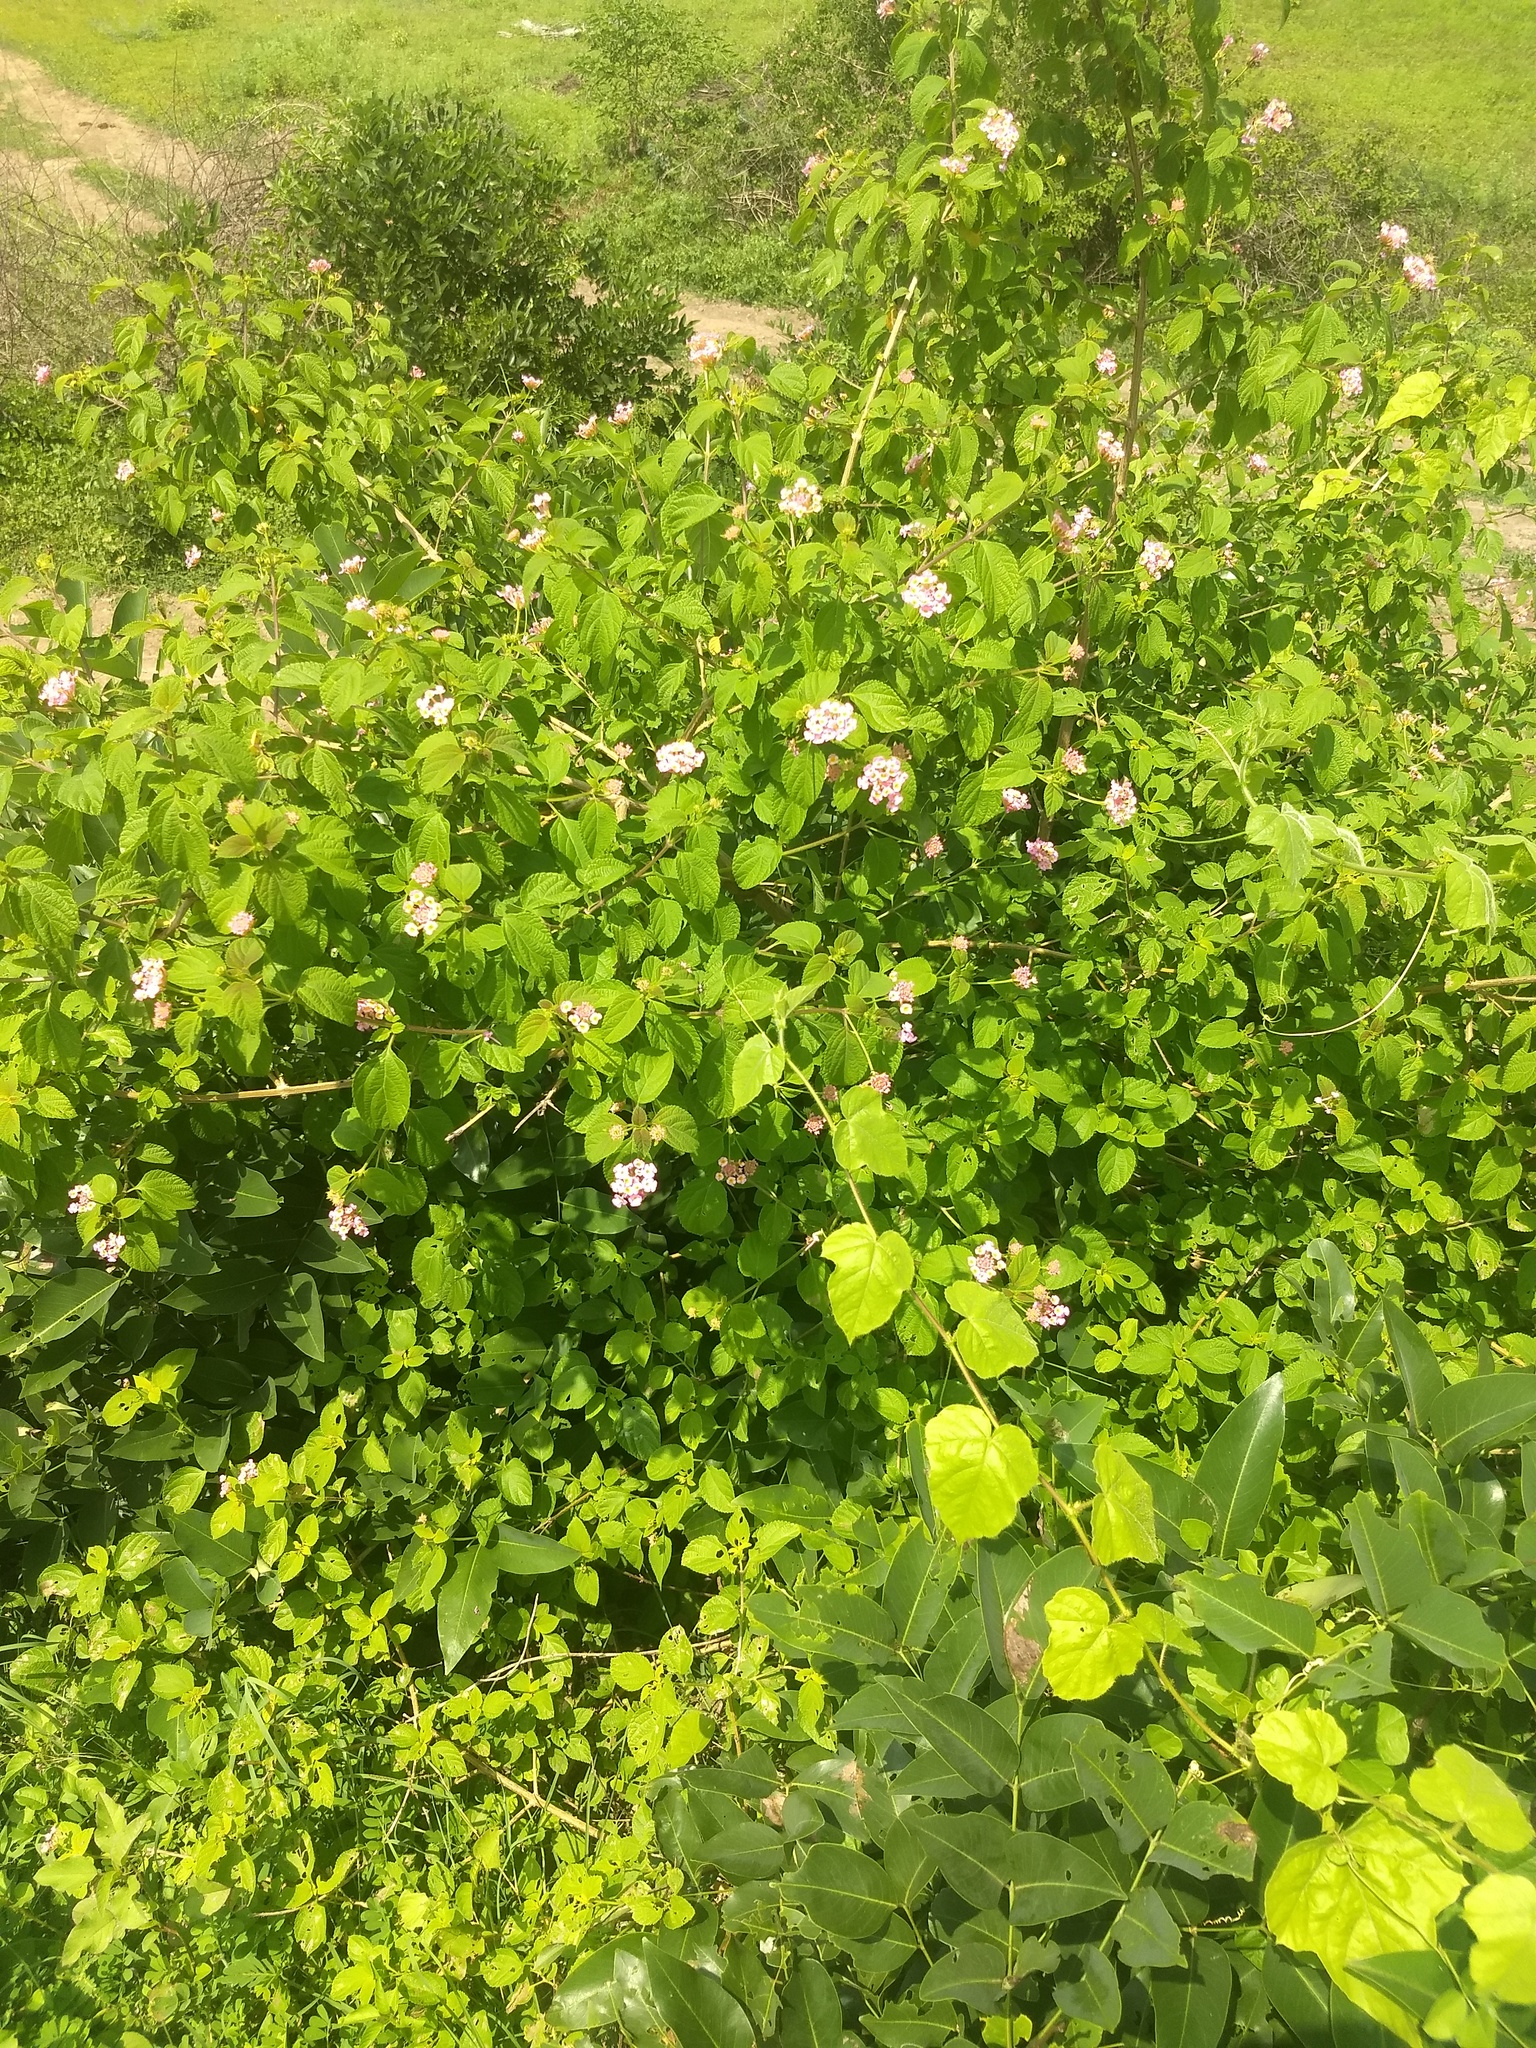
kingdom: Plantae
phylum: Tracheophyta
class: Magnoliopsida
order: Lamiales
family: Verbenaceae
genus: Lantana
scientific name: Lantana camara
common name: Lantana
